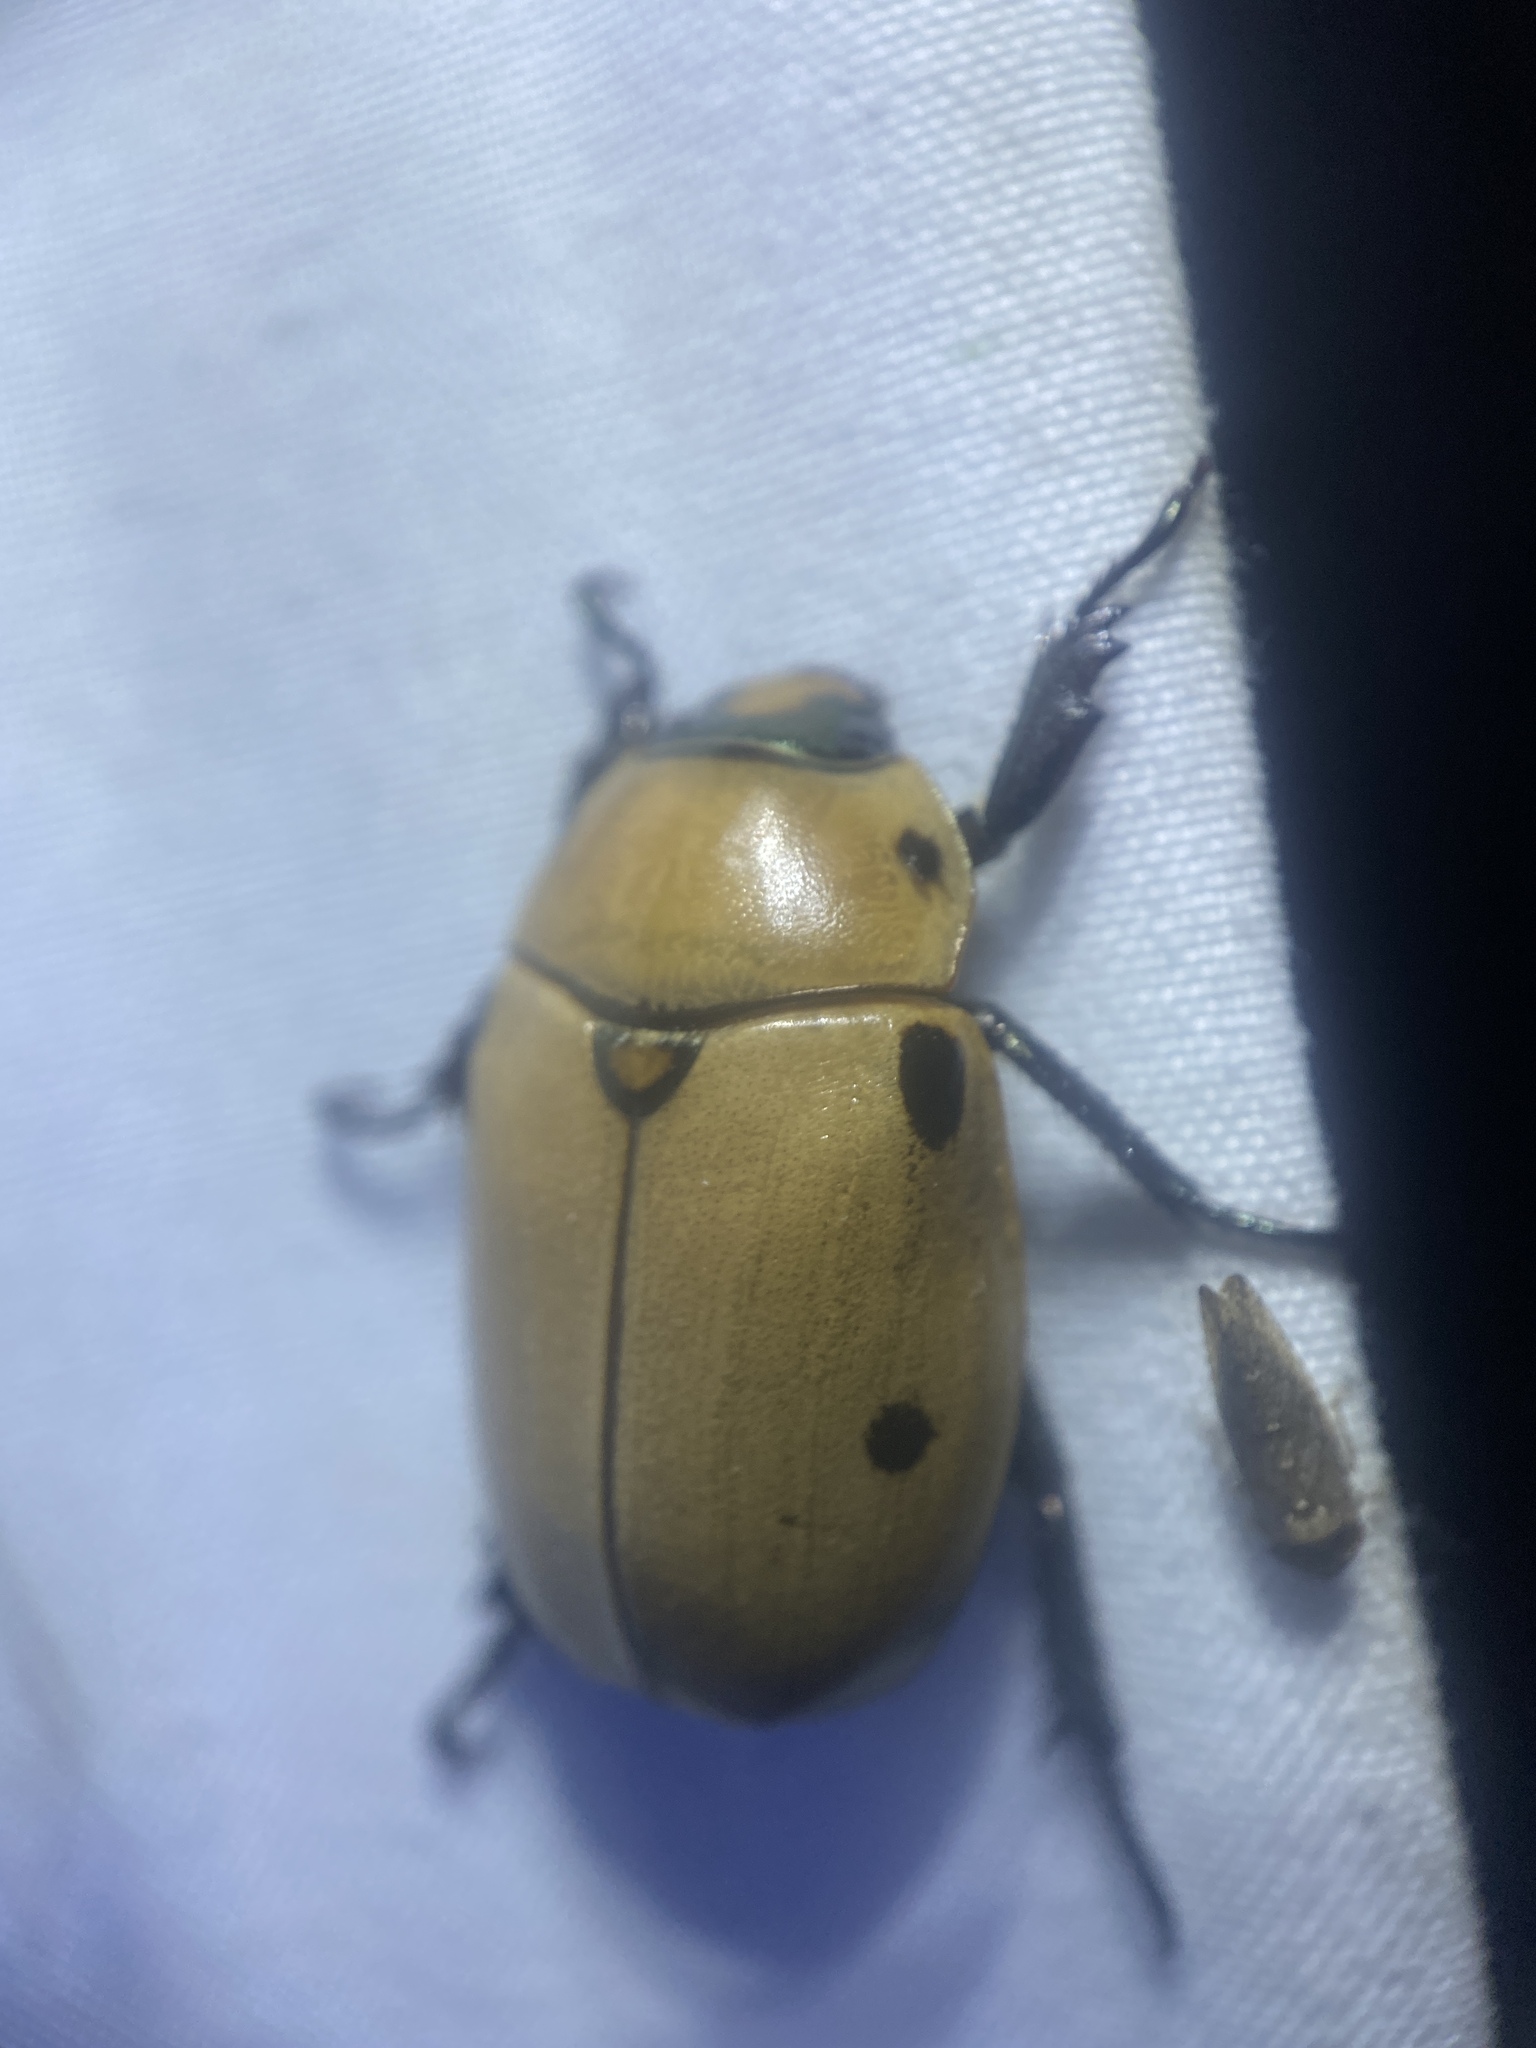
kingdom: Animalia
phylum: Arthropoda
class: Insecta
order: Coleoptera
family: Scarabaeidae
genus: Pelidnota
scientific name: Pelidnota punctata
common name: Grapevine beetle
